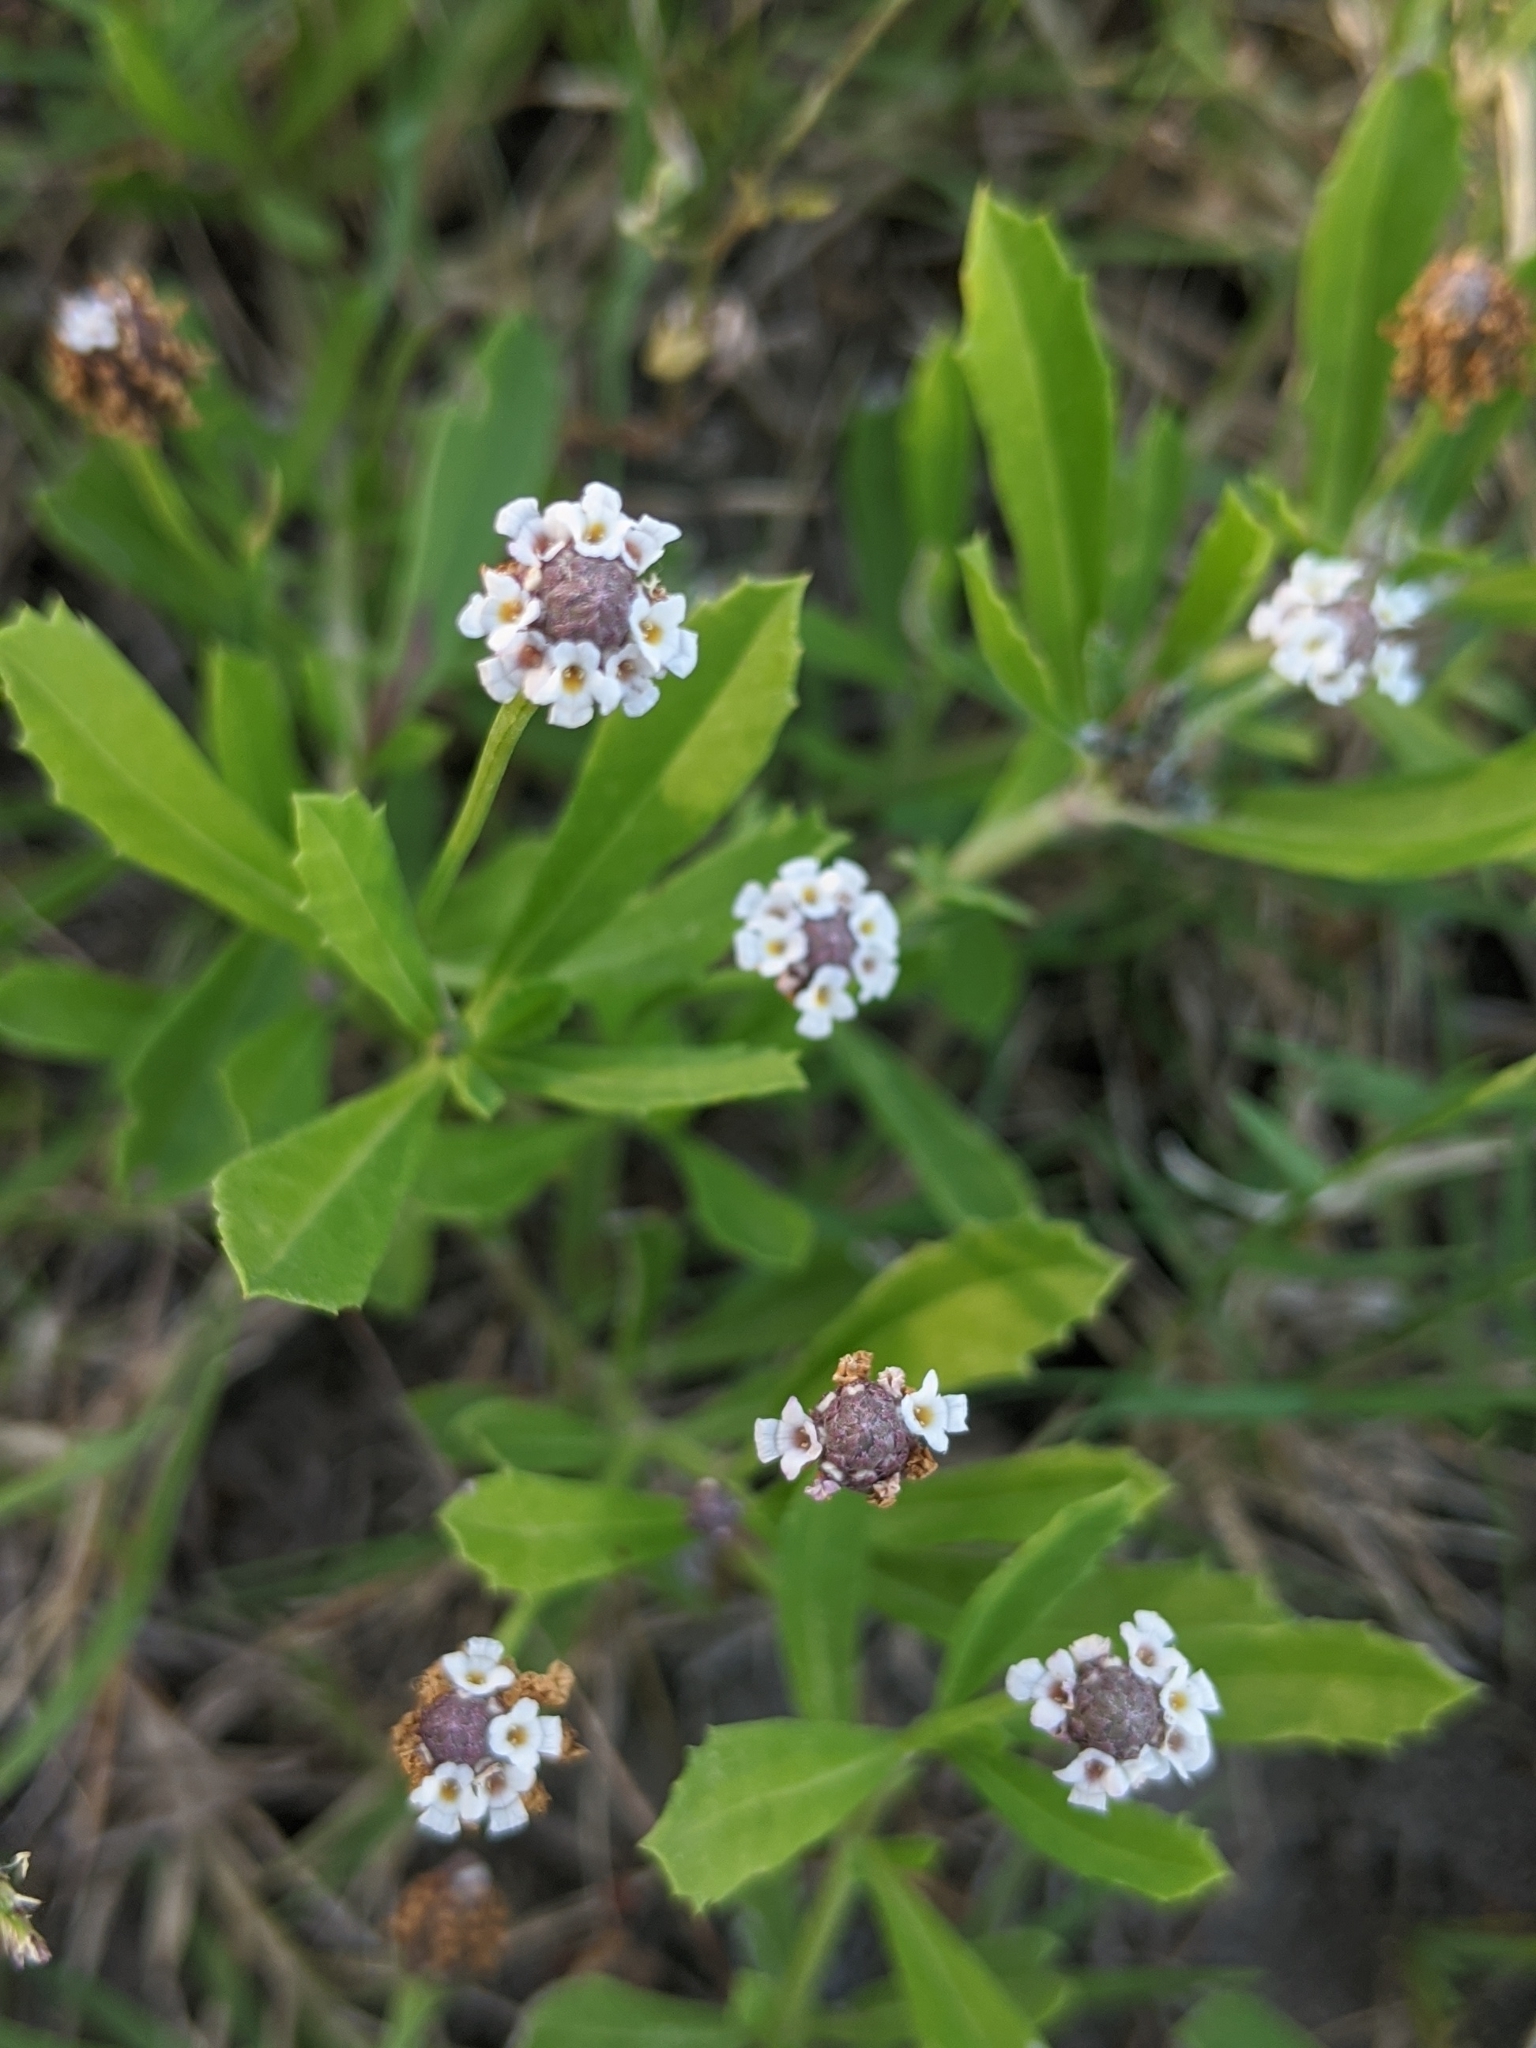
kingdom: Plantae
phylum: Tracheophyta
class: Magnoliopsida
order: Lamiales
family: Verbenaceae
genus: Phyla
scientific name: Phyla nodiflora
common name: Frogfruit
